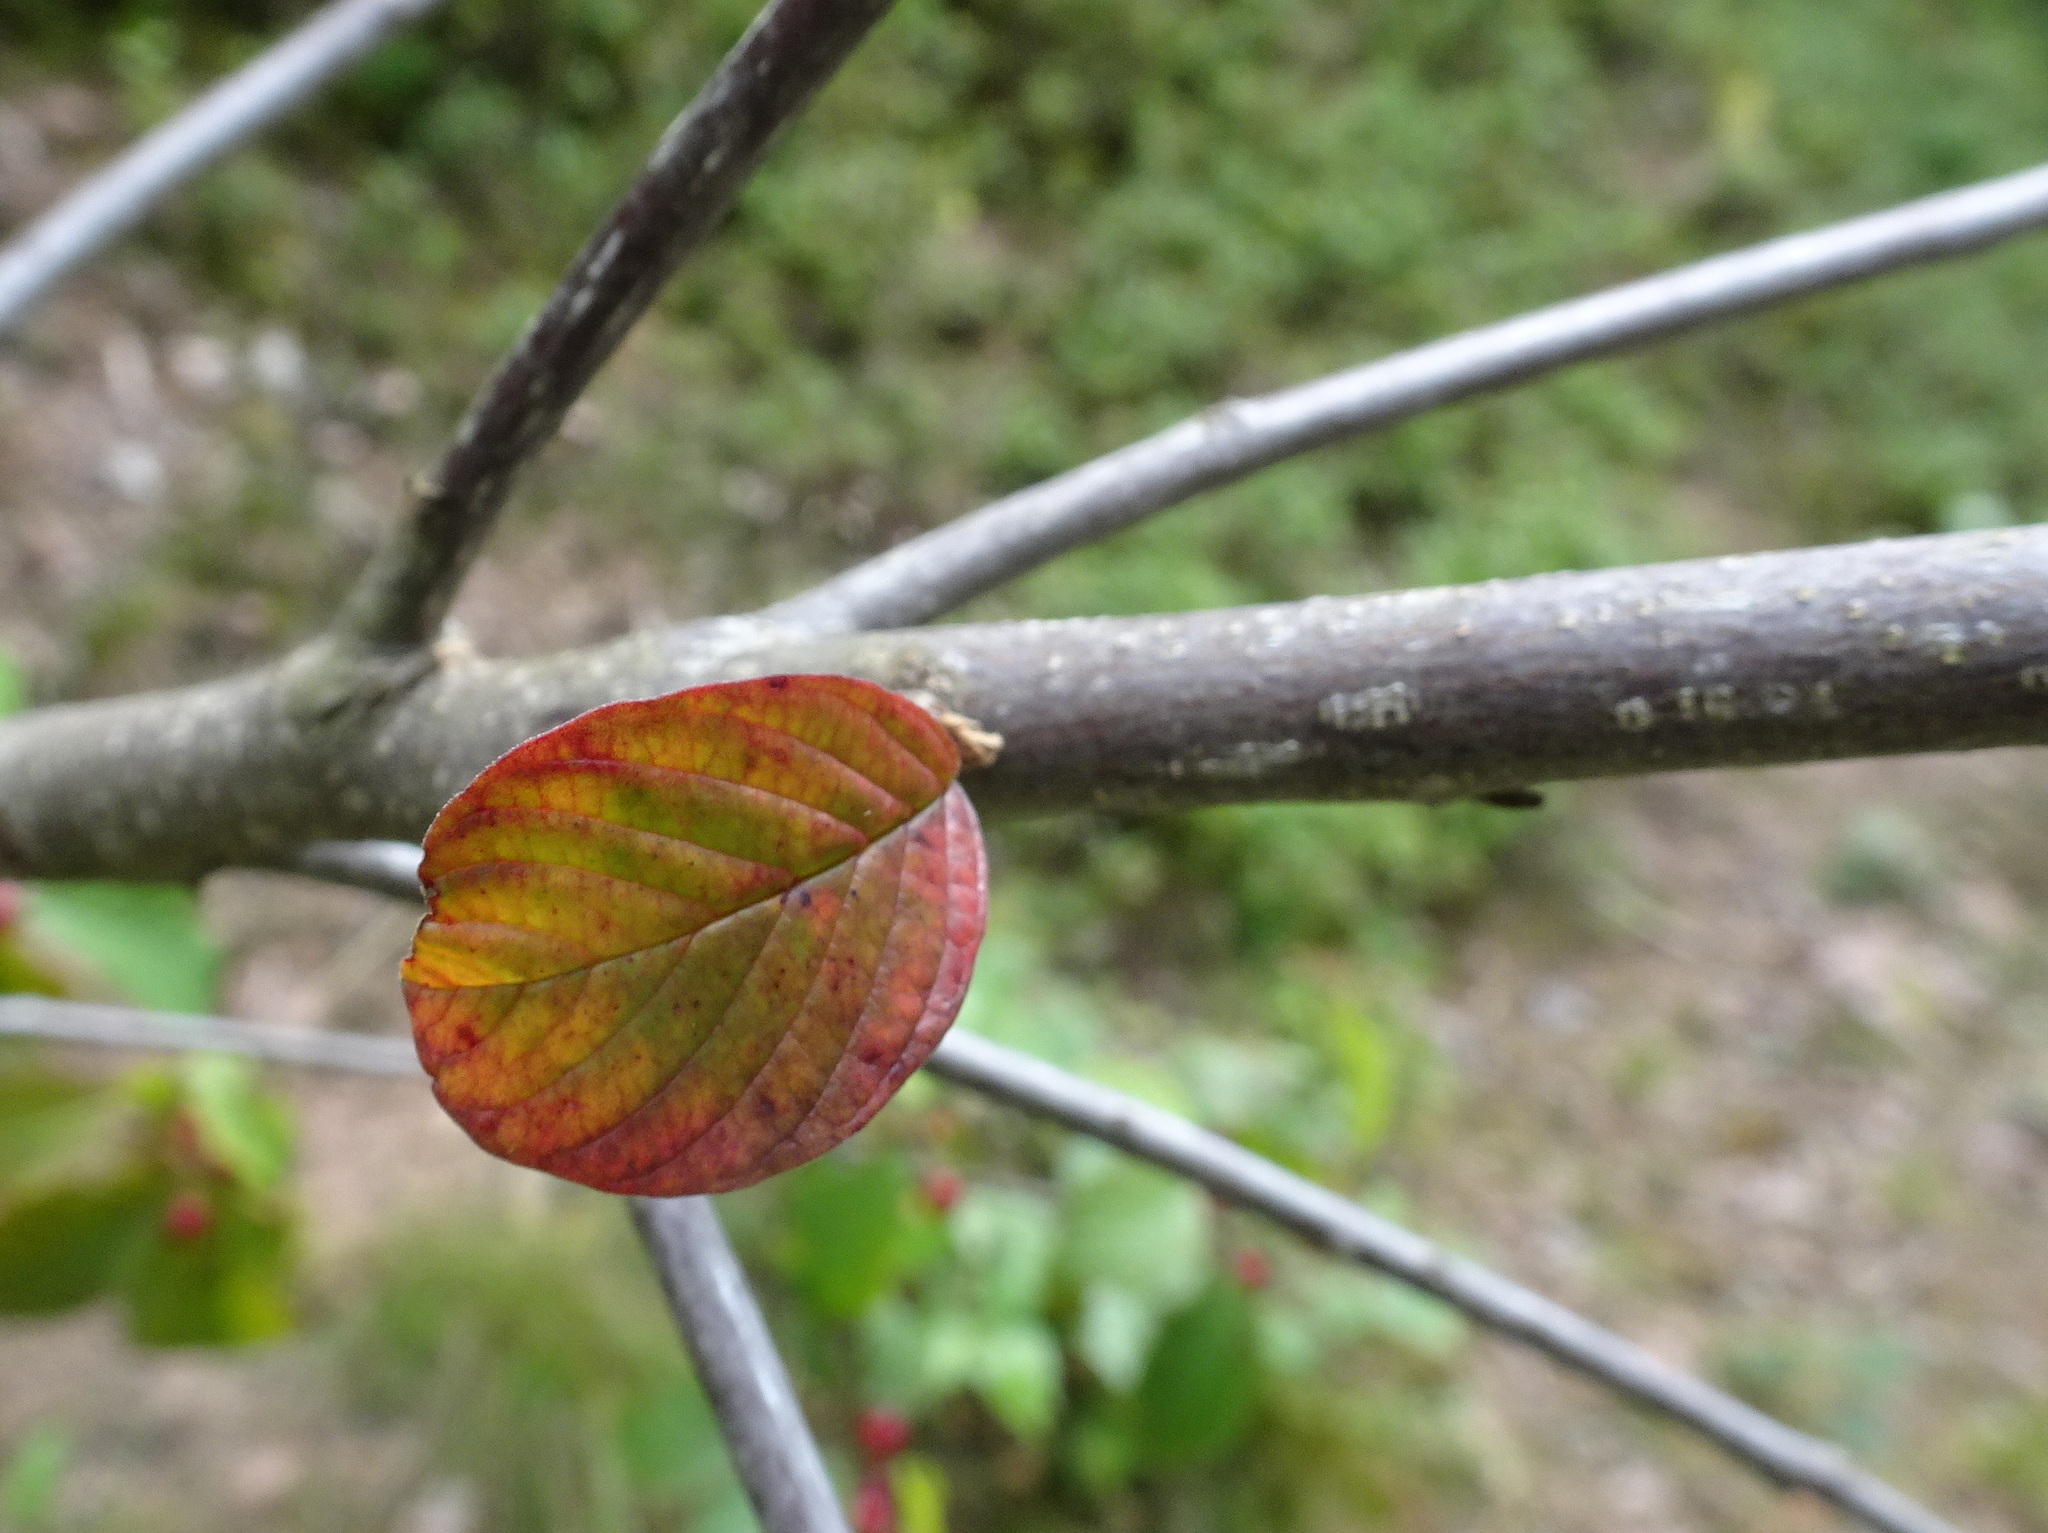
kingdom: Plantae
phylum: Tracheophyta
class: Magnoliopsida
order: Rosales
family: Rhamnaceae
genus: Frangula
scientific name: Frangula alnus
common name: Alder buckthorn
